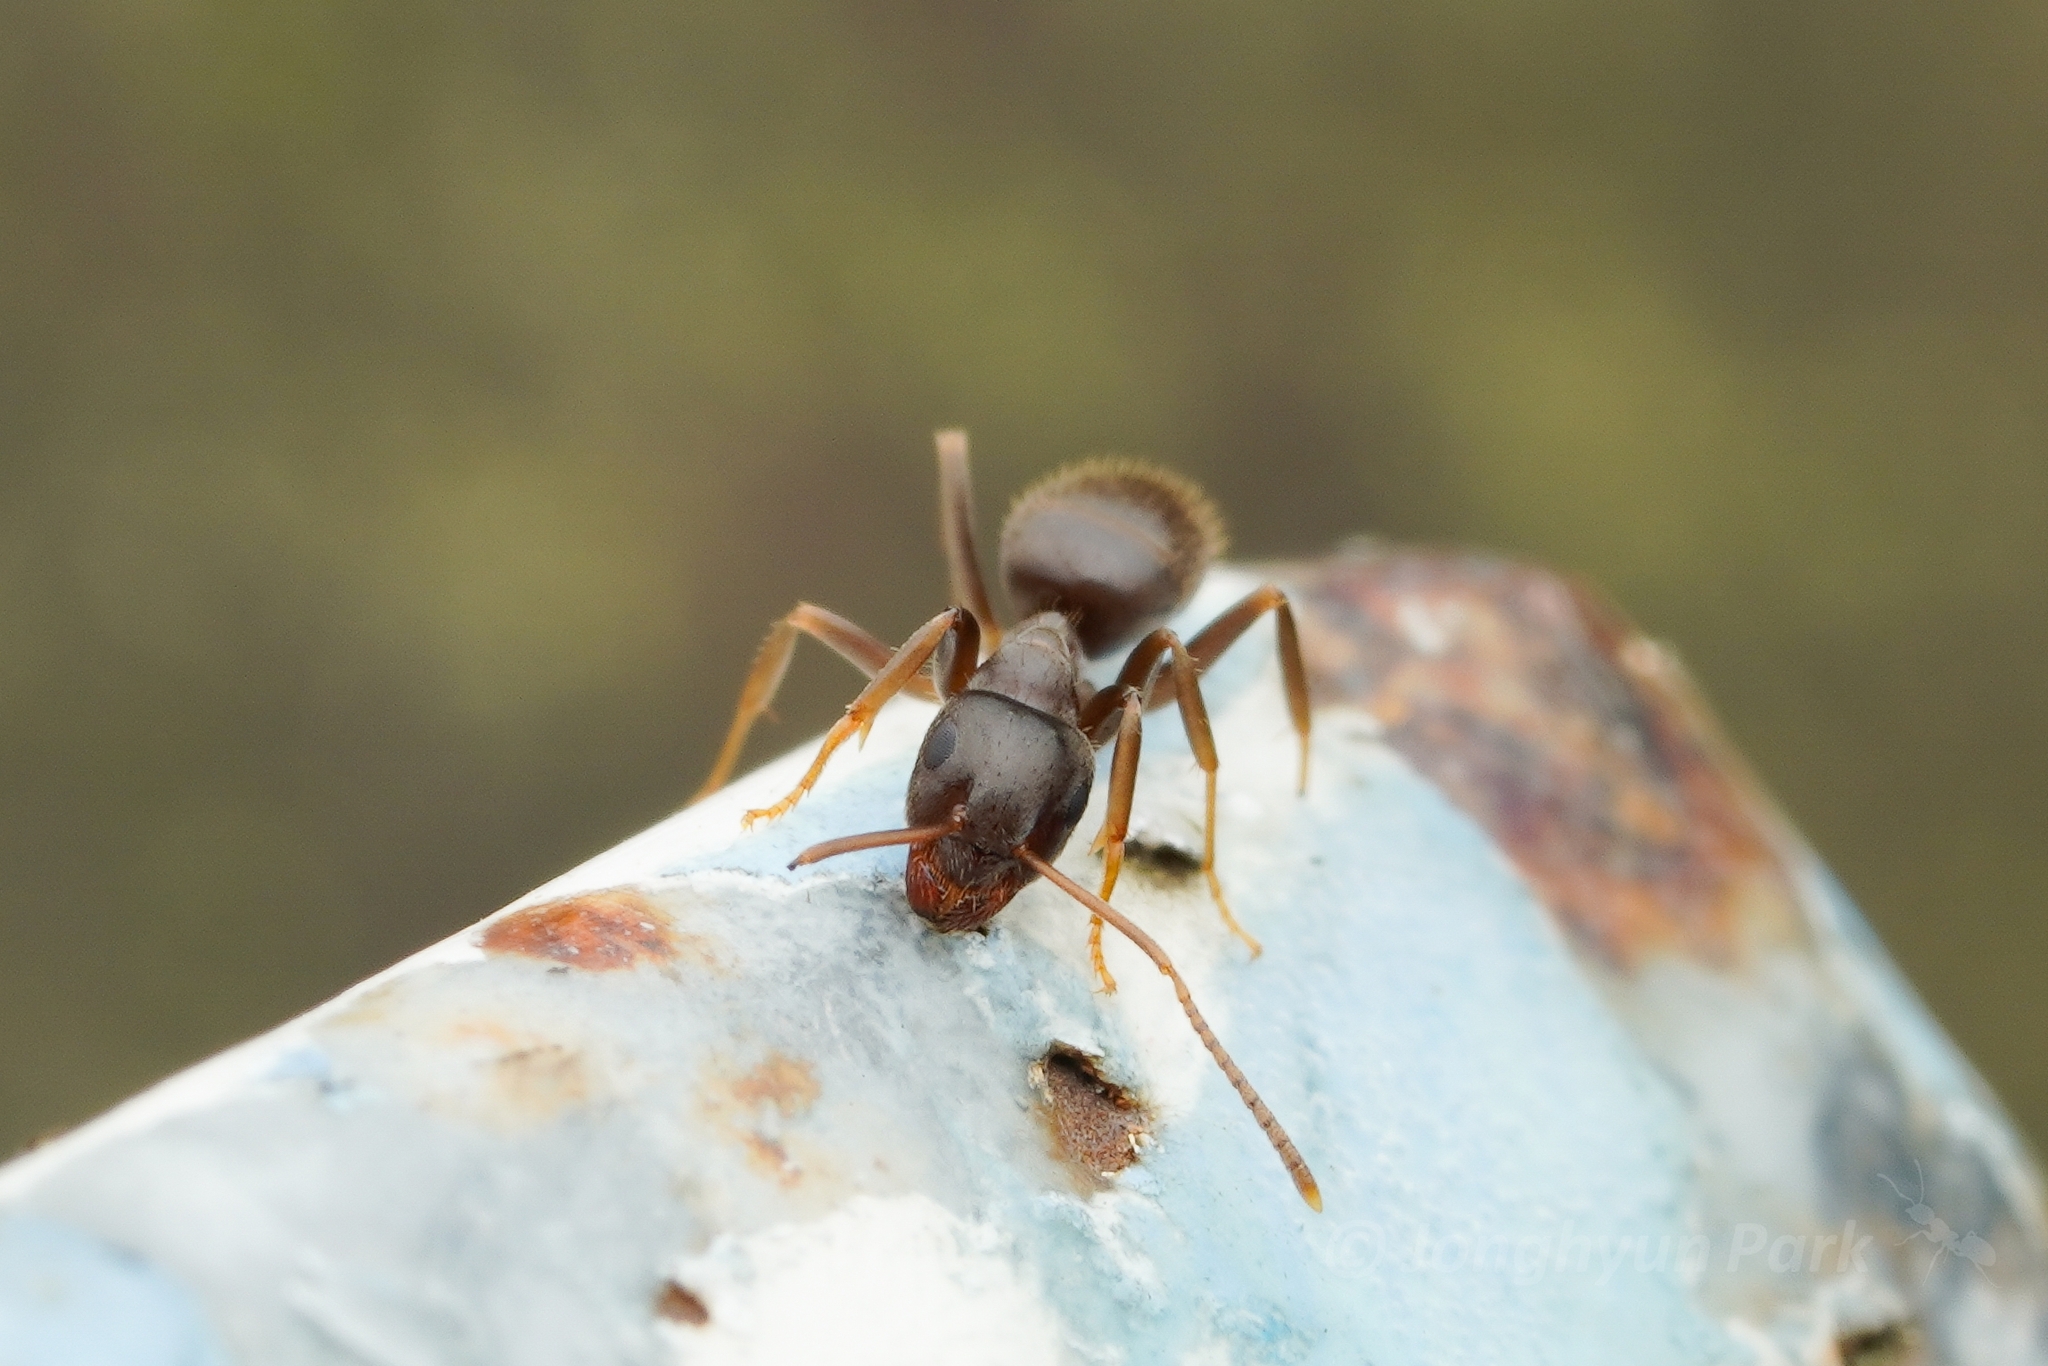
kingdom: Animalia
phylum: Arthropoda
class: Insecta
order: Hymenoptera
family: Formicidae
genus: Lasius
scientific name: Lasius
